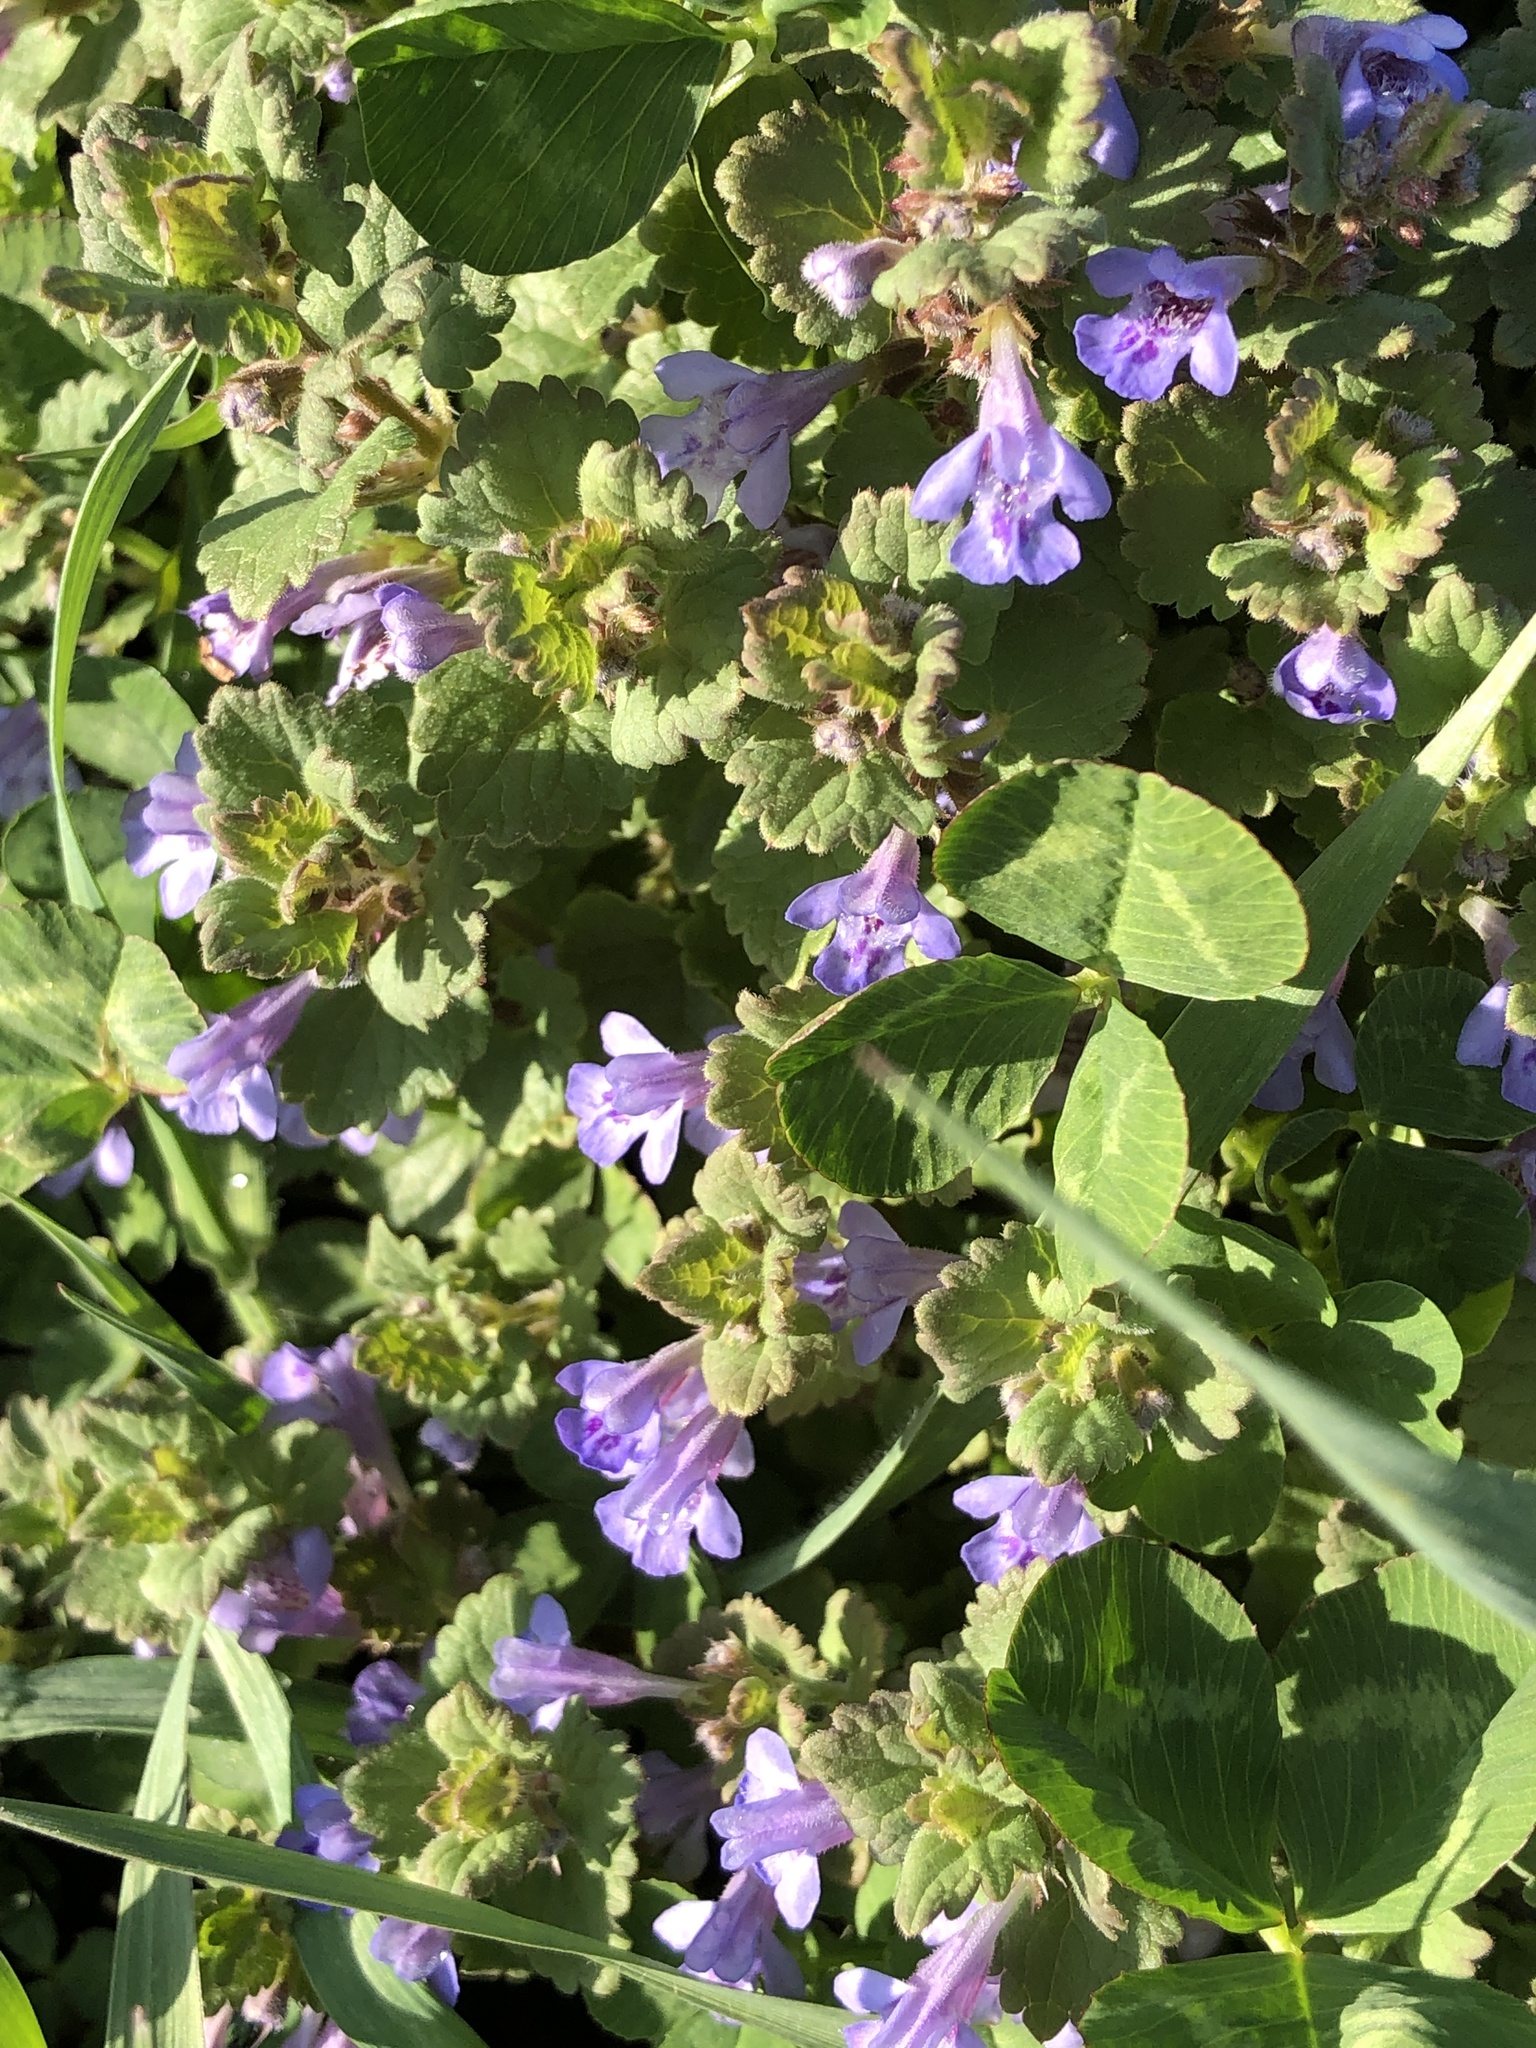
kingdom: Plantae
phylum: Tracheophyta
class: Magnoliopsida
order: Lamiales
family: Lamiaceae
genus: Glechoma
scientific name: Glechoma hederacea
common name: Ground ivy
